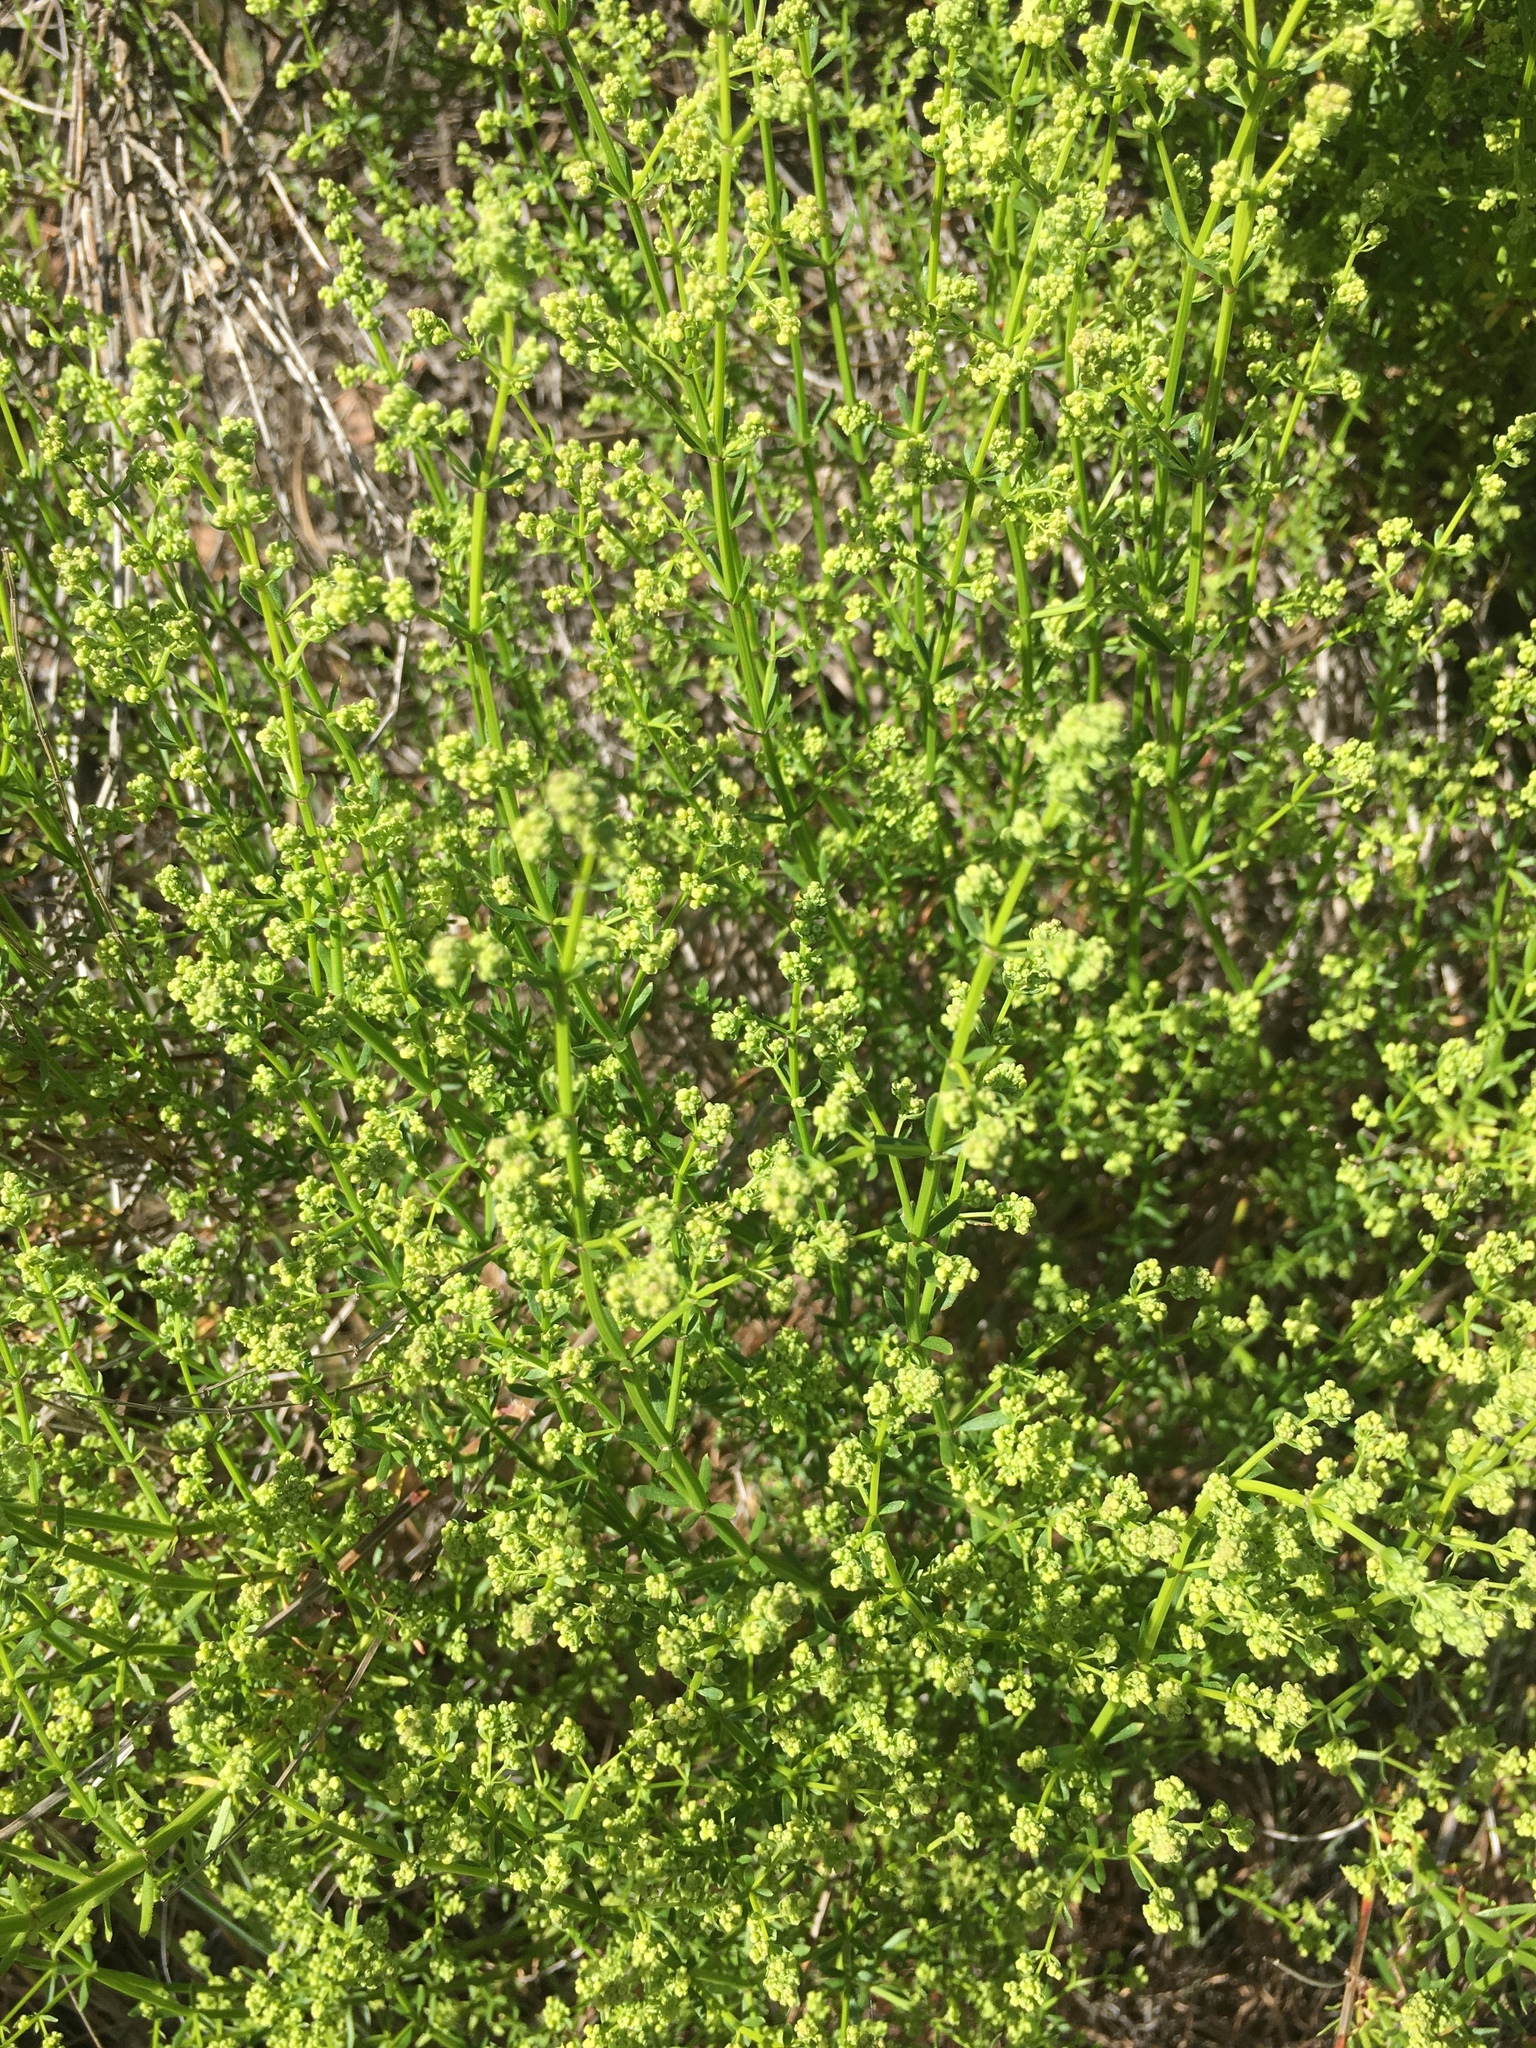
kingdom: Plantae
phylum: Tracheophyta
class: Magnoliopsida
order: Gentianales
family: Rubiaceae
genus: Galium
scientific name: Galium angustifolium
